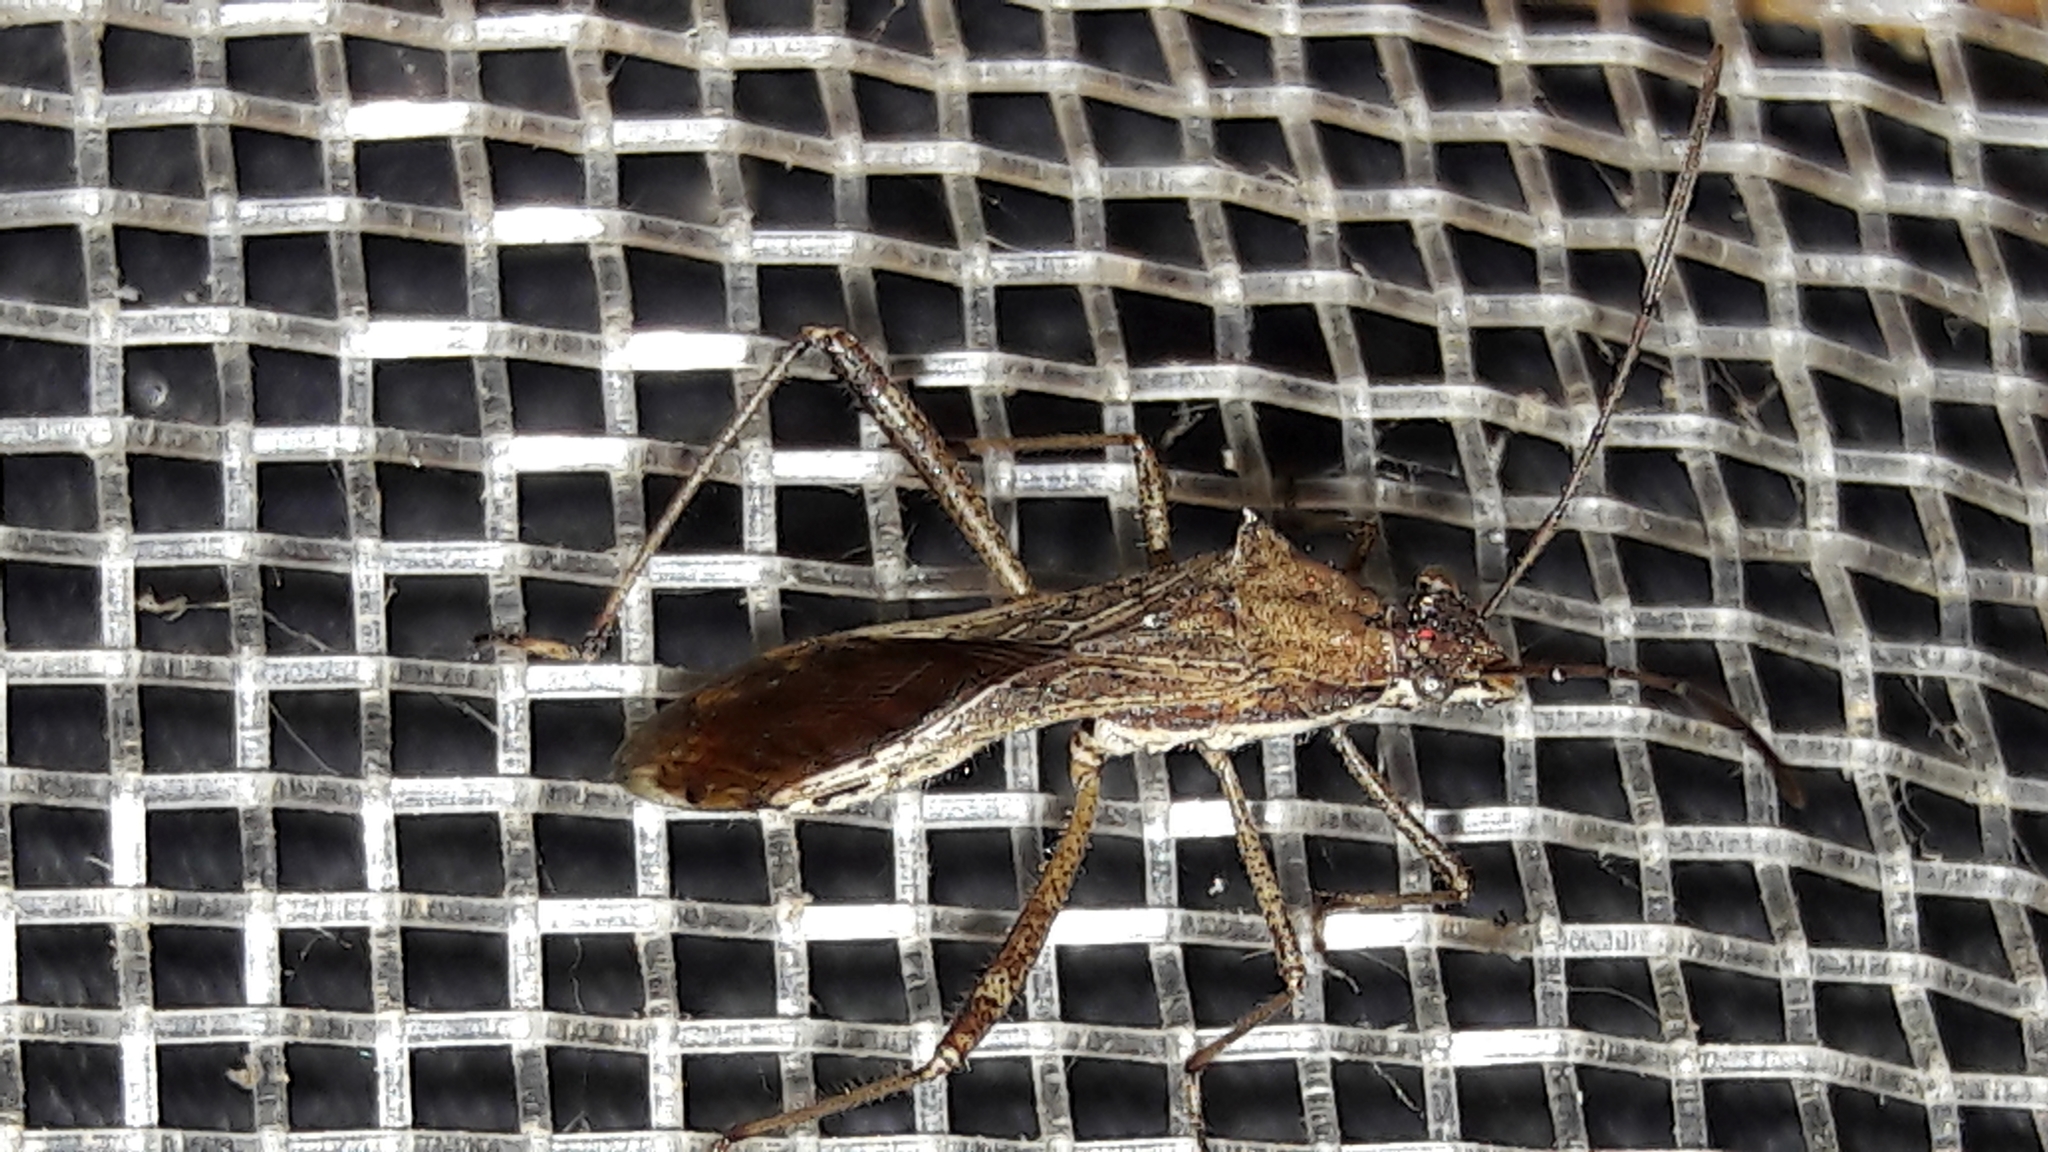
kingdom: Animalia
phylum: Arthropoda
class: Insecta
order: Hemiptera
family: Alydidae
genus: Neomegalotomus
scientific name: Neomegalotomus parvus
